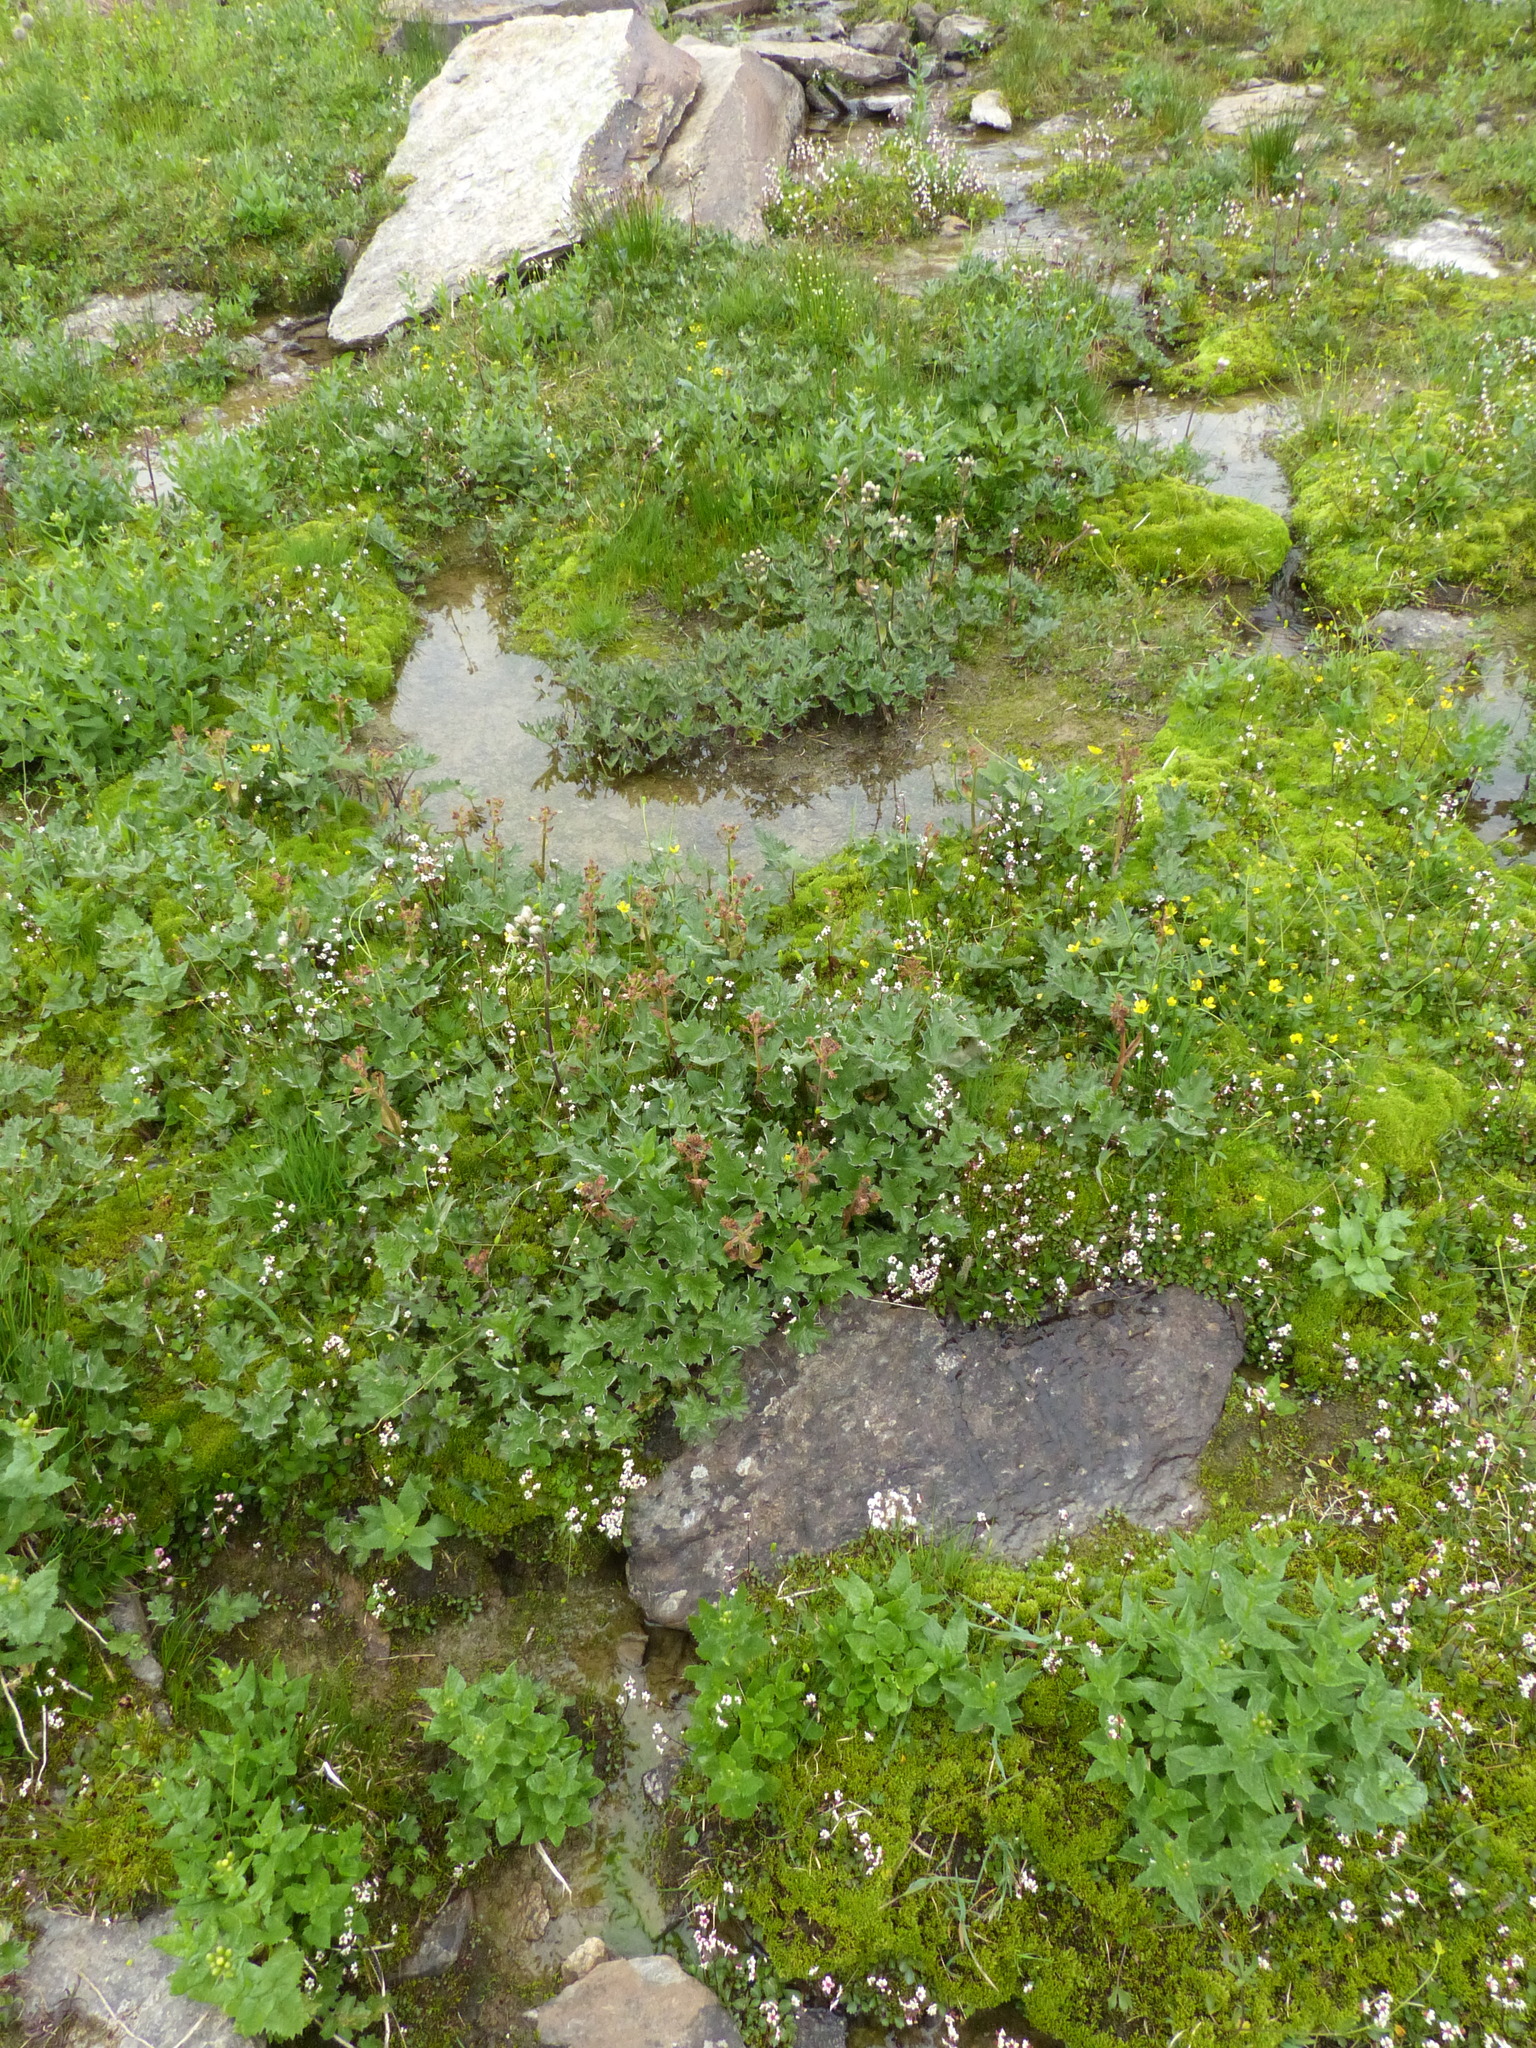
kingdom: Plantae
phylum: Tracheophyta
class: Magnoliopsida
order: Asterales
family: Asteraceae
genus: Petasites
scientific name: Petasites frigidus
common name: Arctic butterbur
